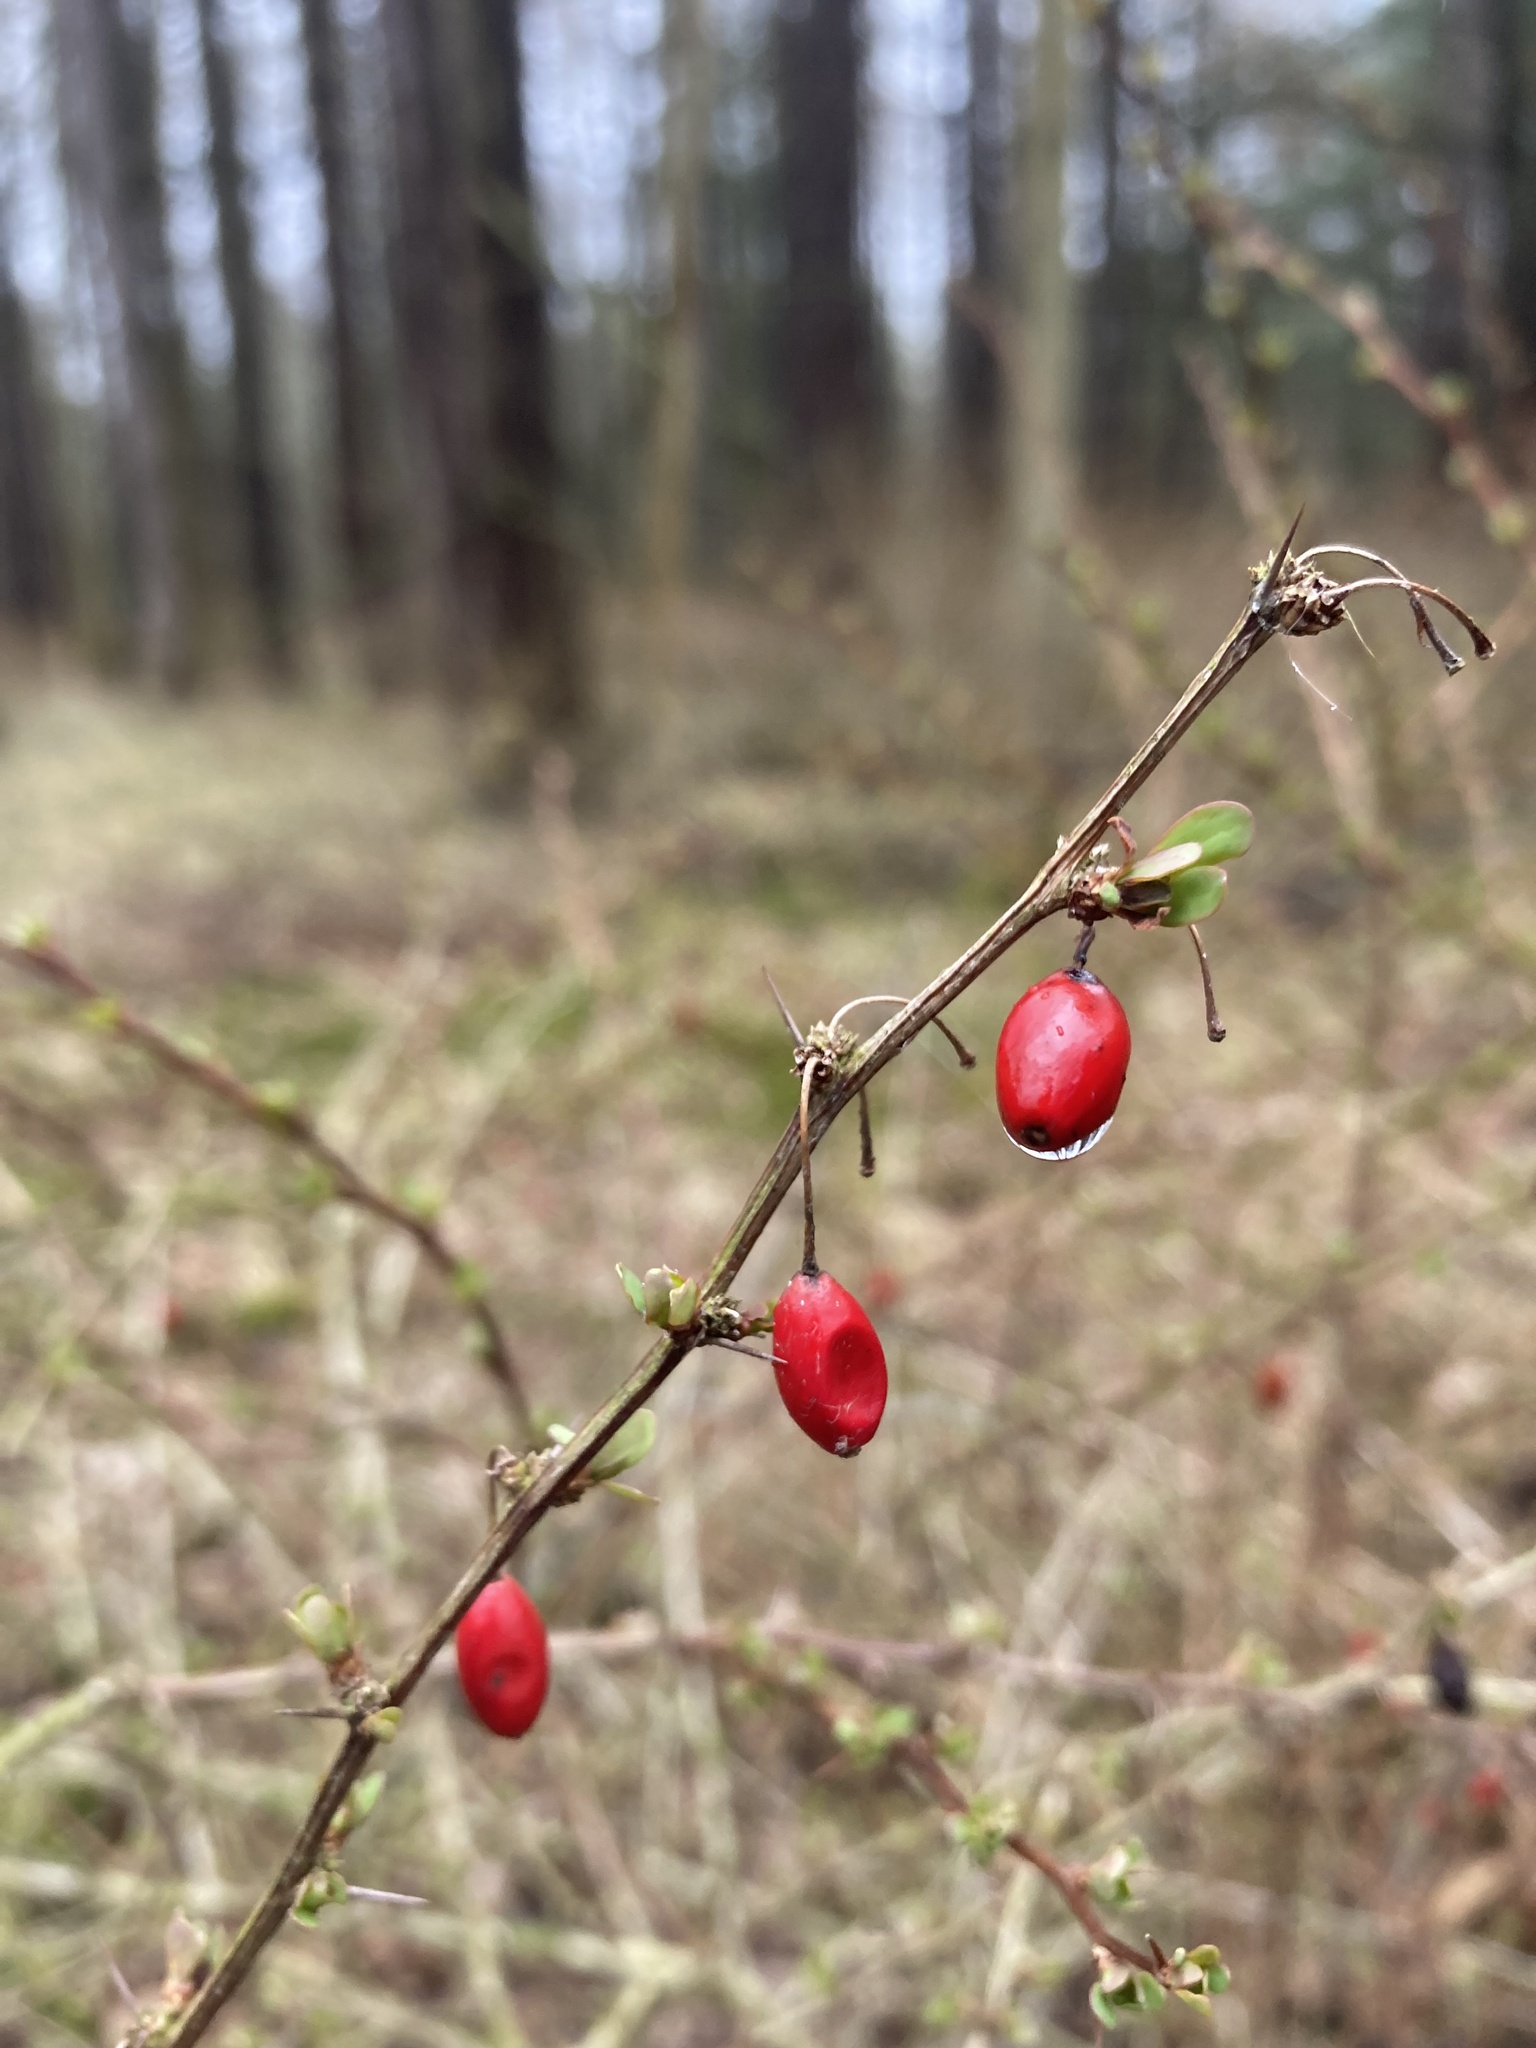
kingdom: Plantae
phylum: Tracheophyta
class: Magnoliopsida
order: Ranunculales
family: Berberidaceae
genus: Berberis
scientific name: Berberis thunbergii
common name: Japanese barberry
